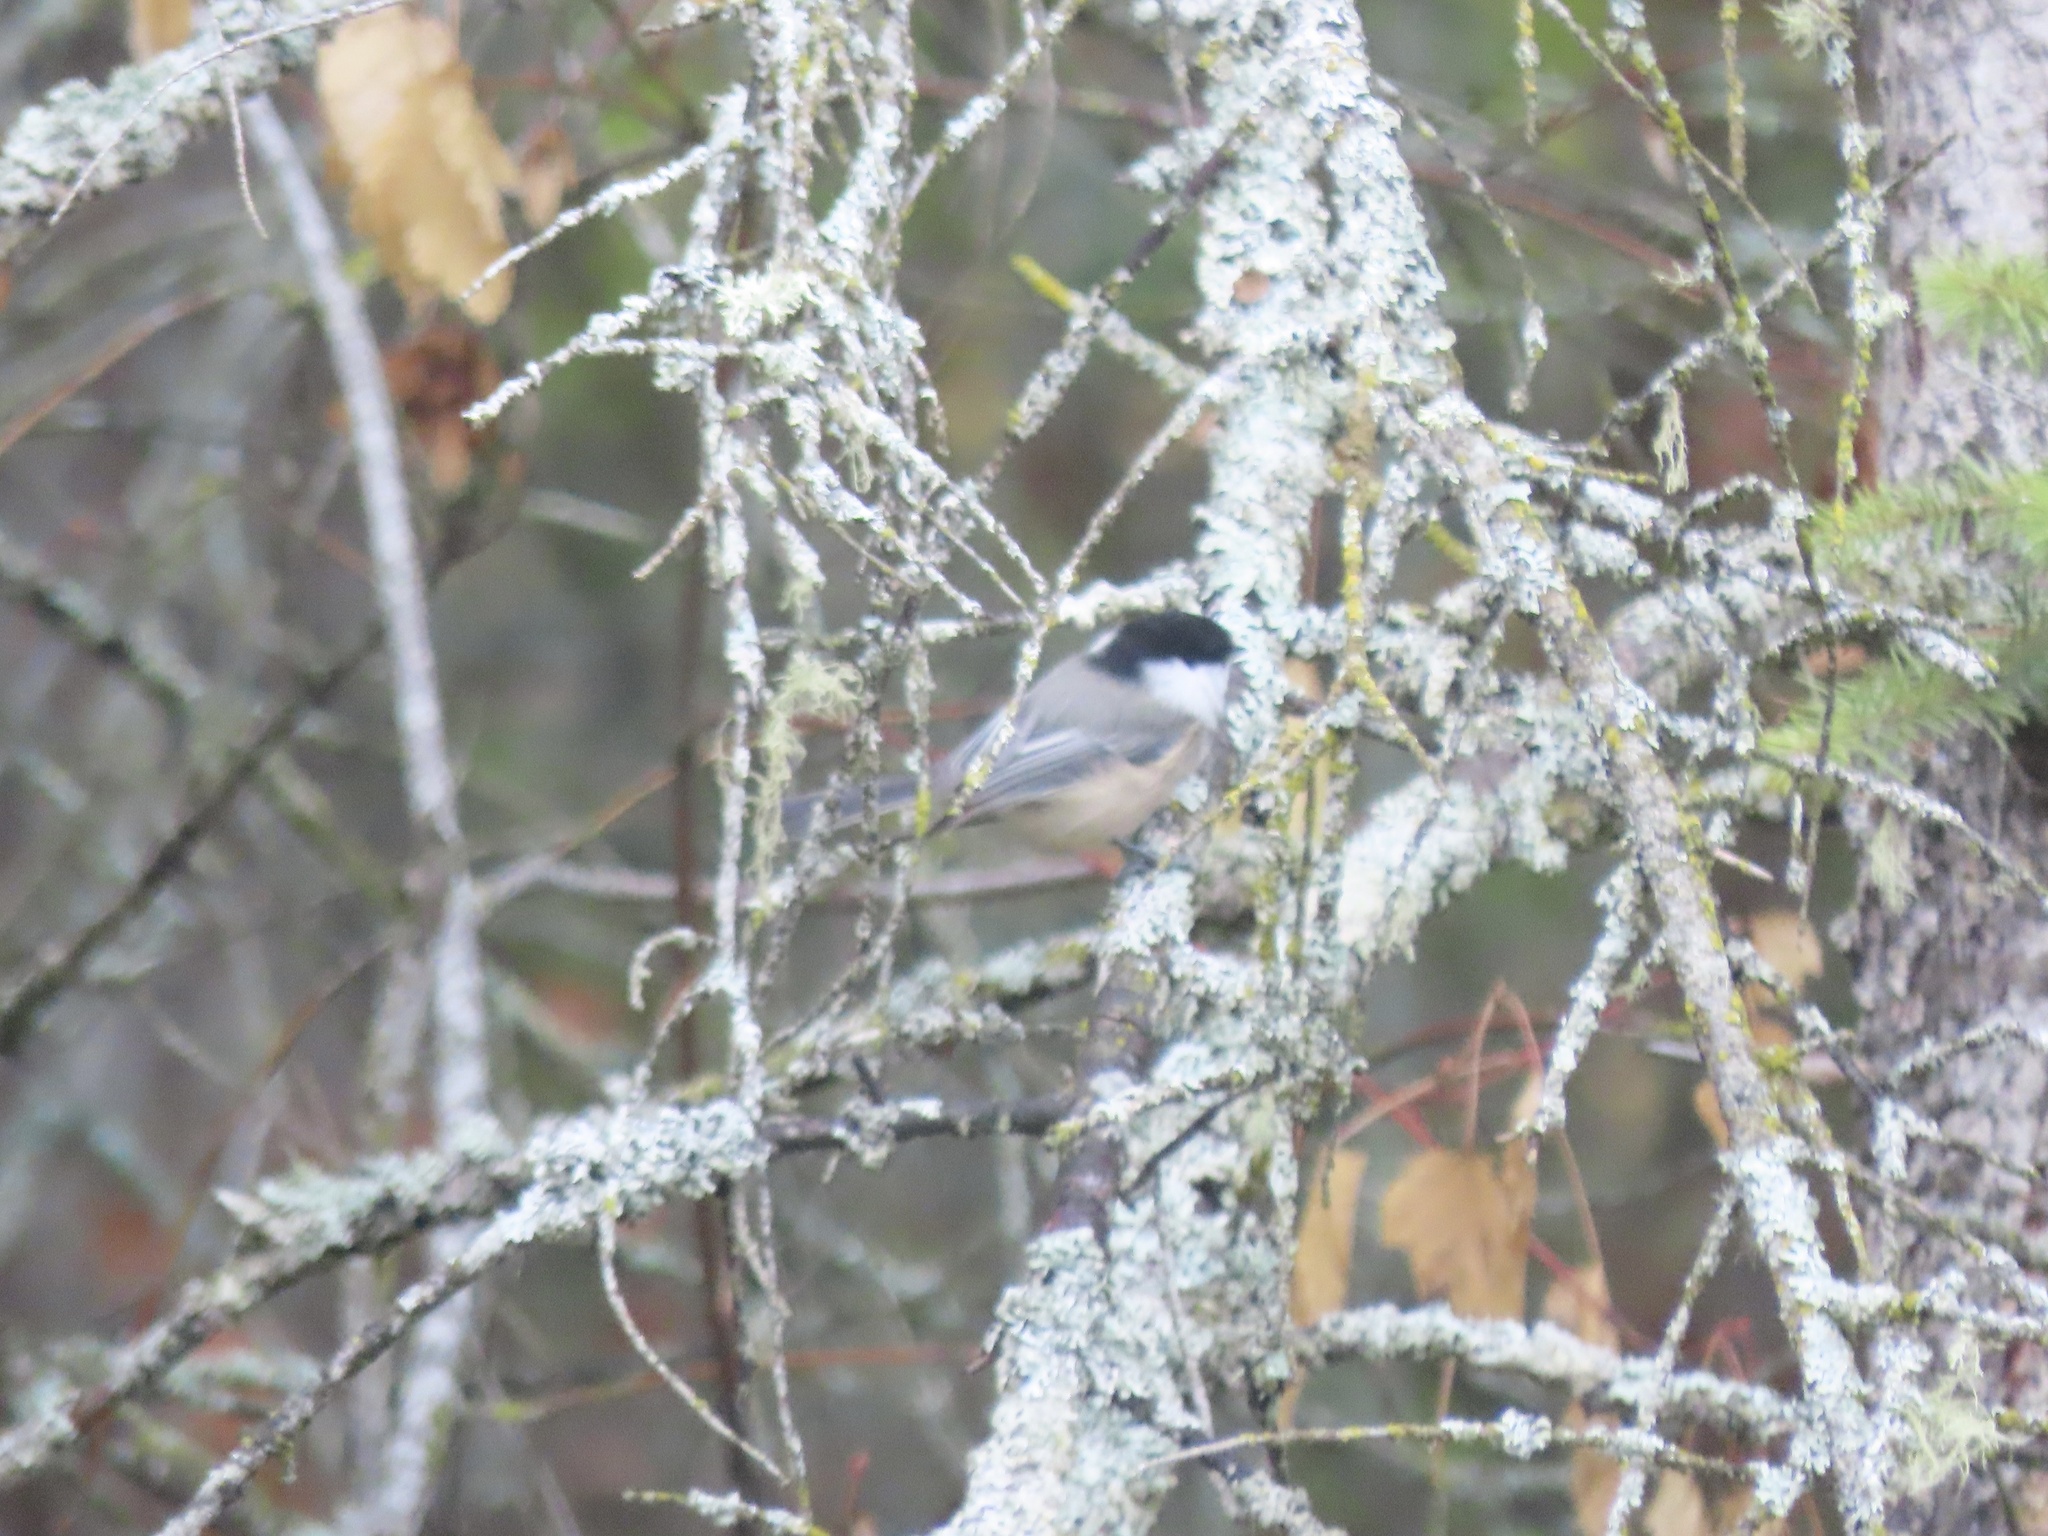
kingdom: Animalia
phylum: Chordata
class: Aves
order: Passeriformes
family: Paridae
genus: Poecile
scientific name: Poecile atricapillus
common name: Black-capped chickadee
